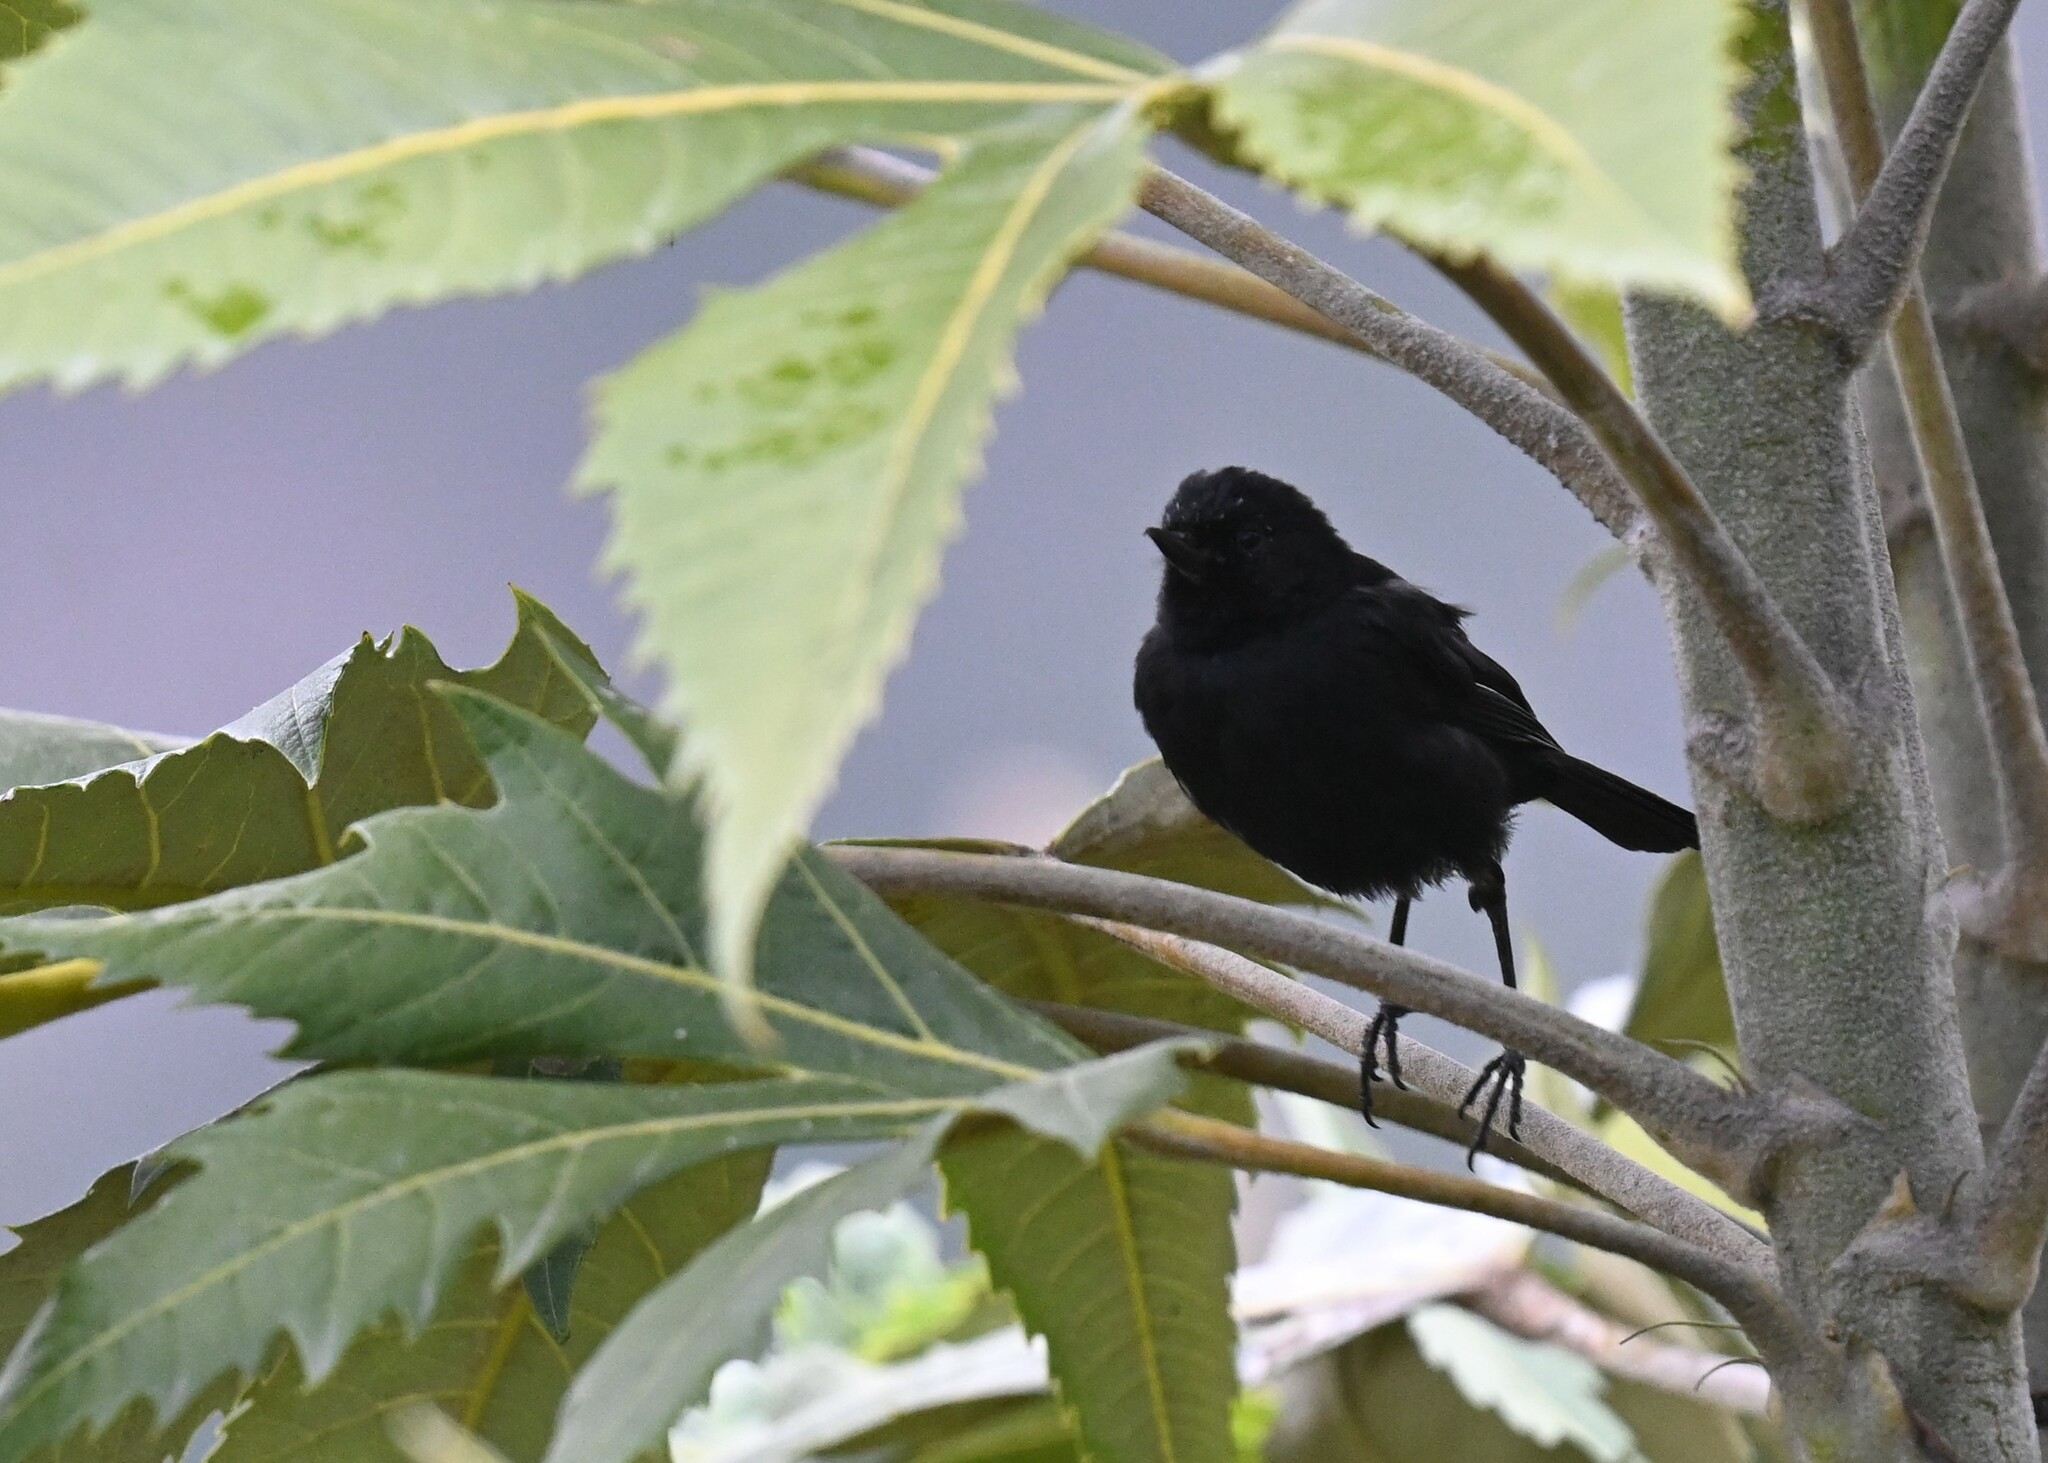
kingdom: Animalia
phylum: Chordata
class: Aves
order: Passeriformes
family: Thraupidae
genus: Diglossa
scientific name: Diglossa humeralis
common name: Black flowerpiercer
